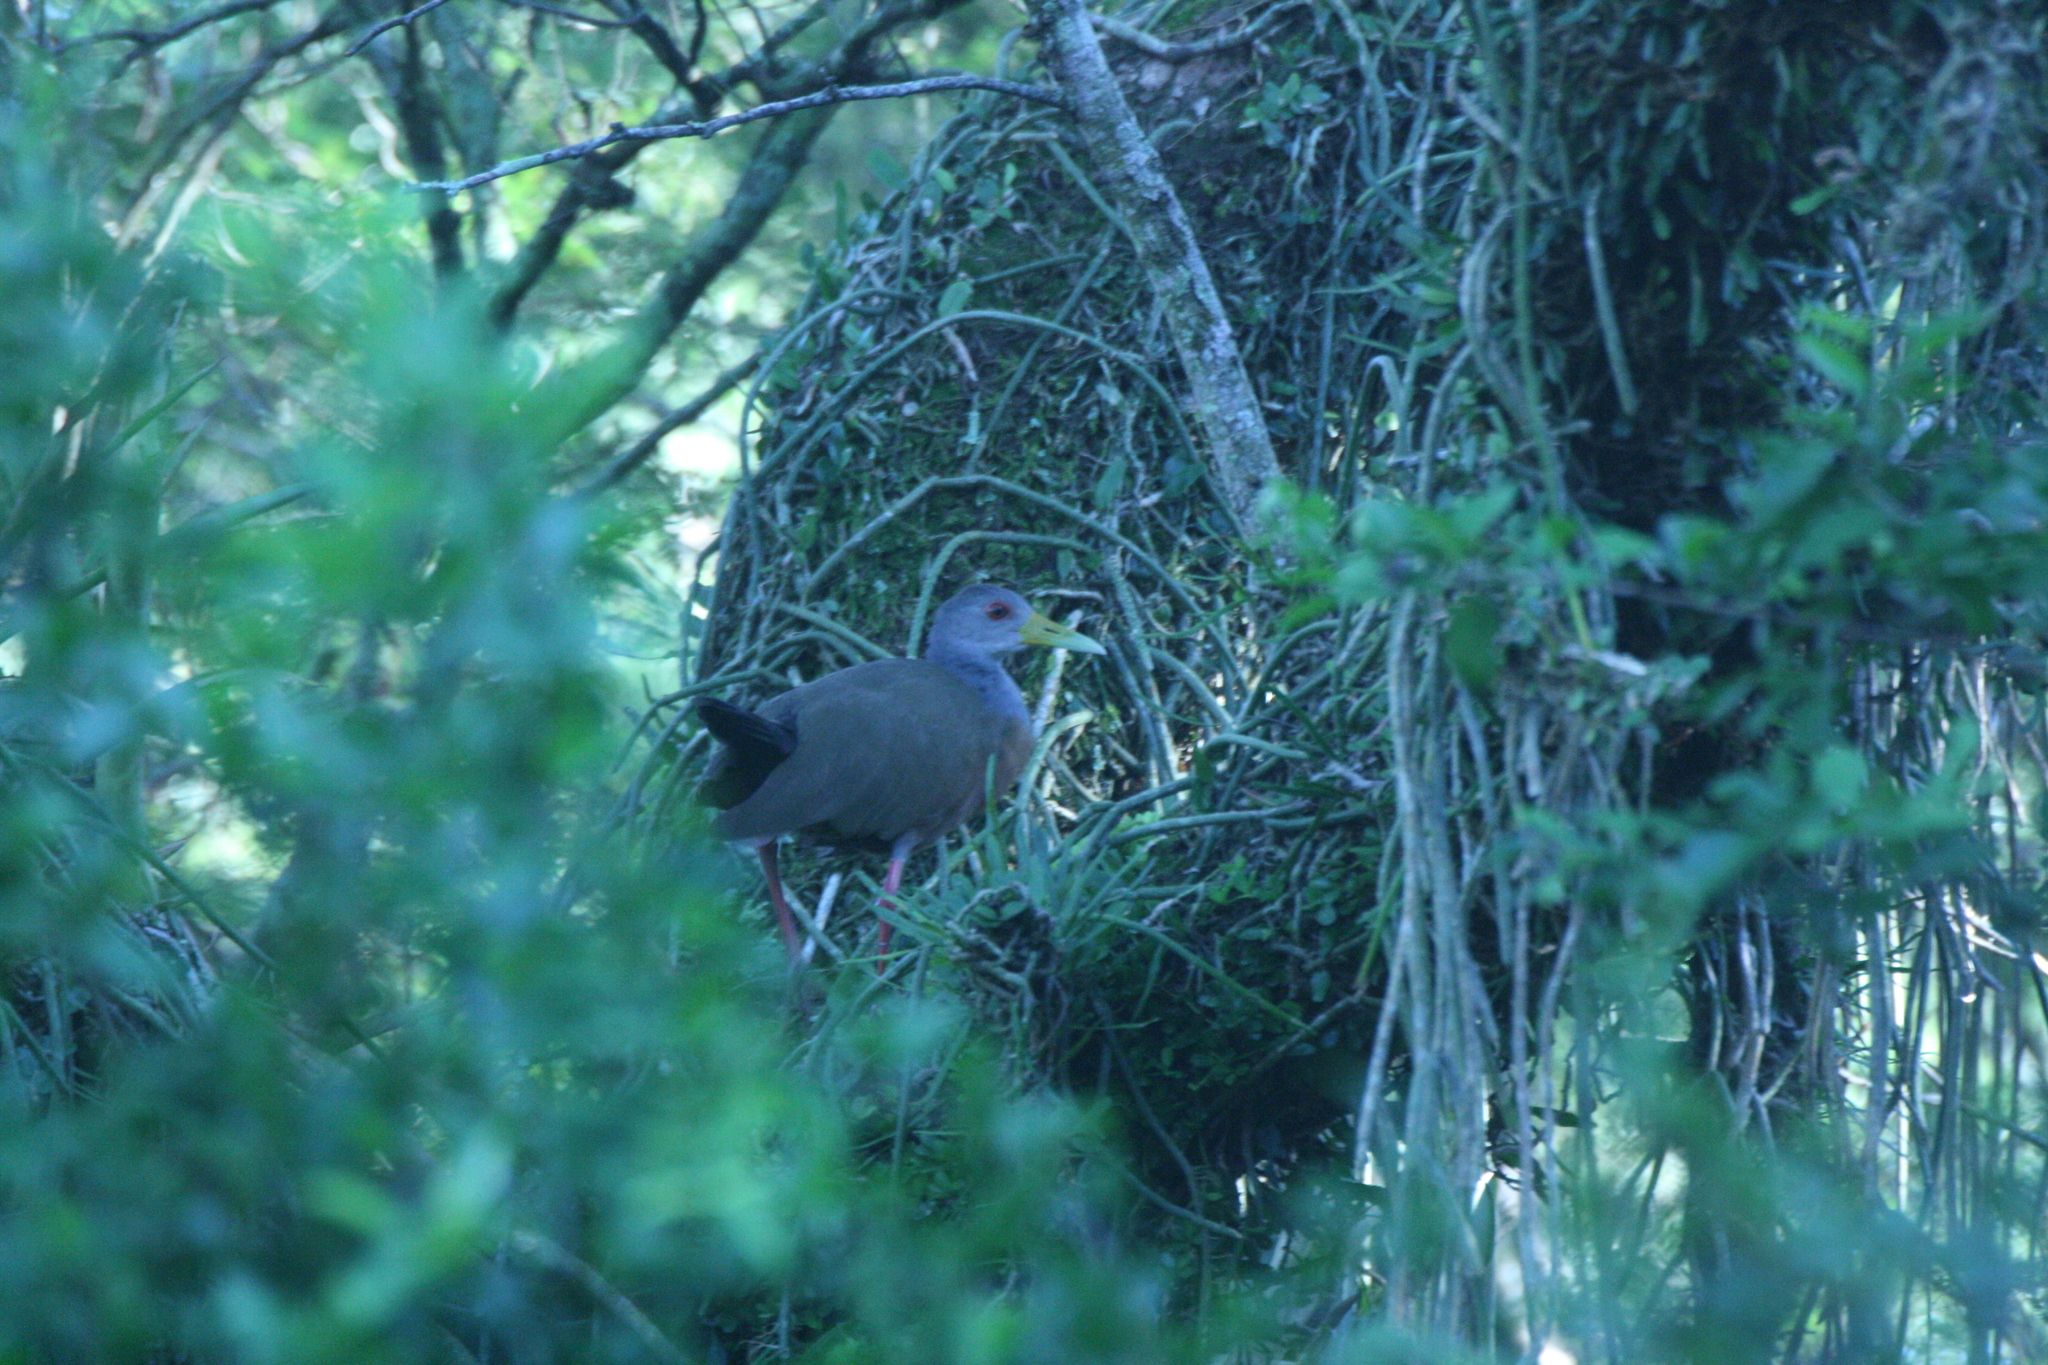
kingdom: Animalia
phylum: Chordata
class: Aves
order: Gruiformes
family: Rallidae
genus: Aramides
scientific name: Aramides cajanea
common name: Gray-necked wood-rail
